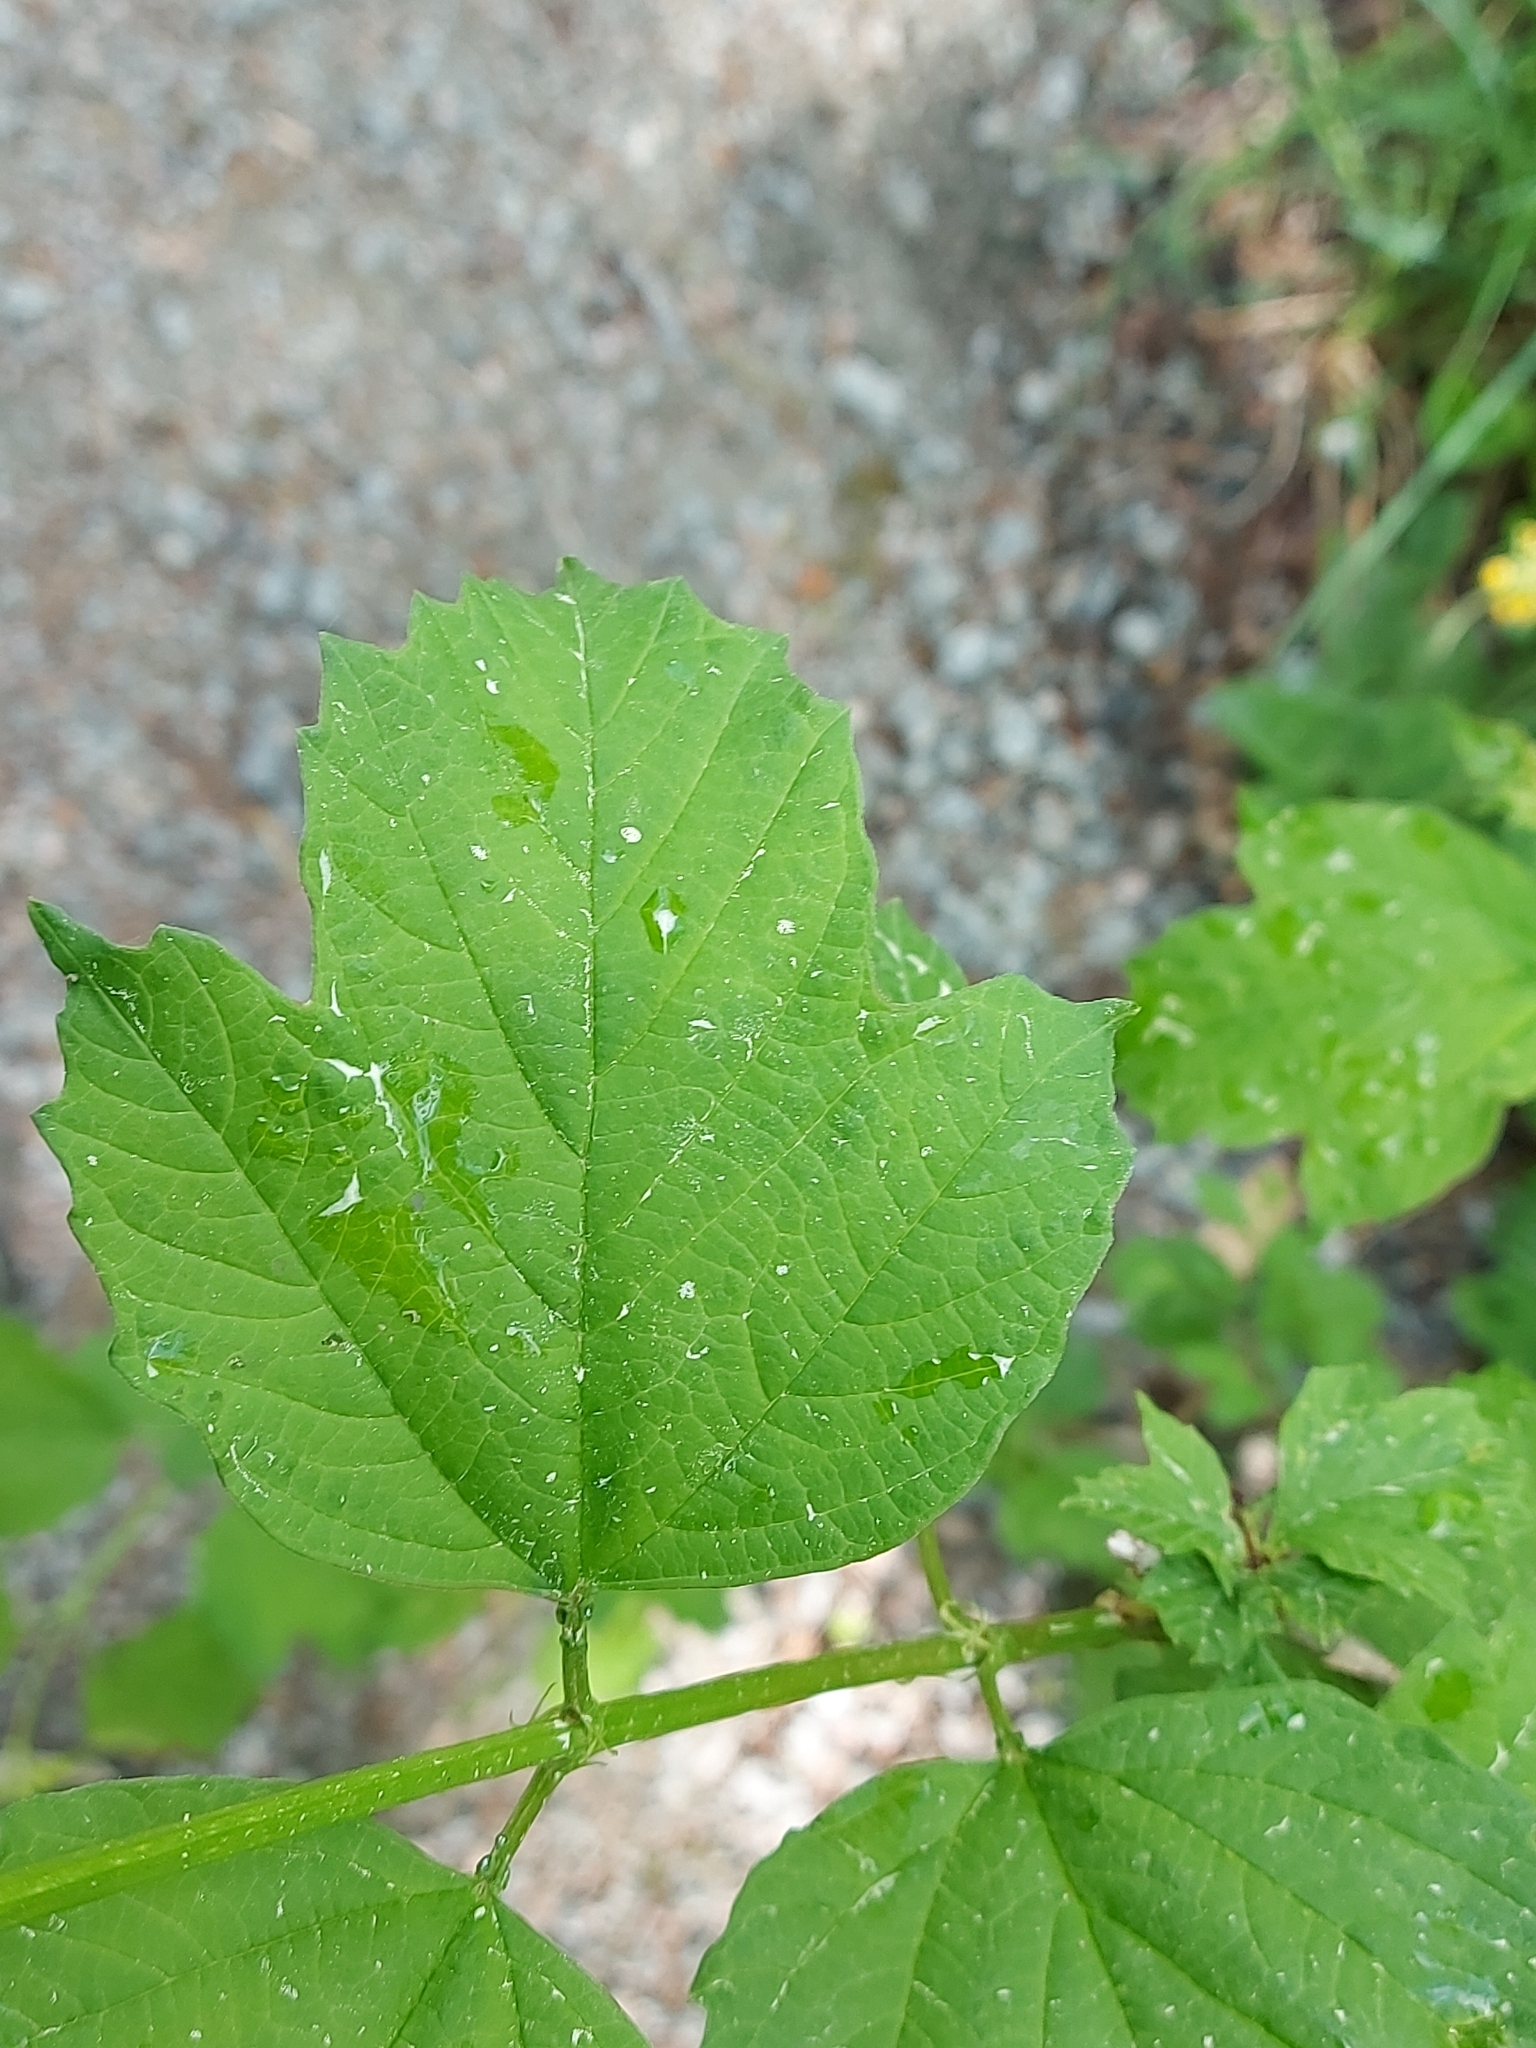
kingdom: Plantae
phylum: Tracheophyta
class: Magnoliopsida
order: Dipsacales
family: Viburnaceae
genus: Viburnum
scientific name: Viburnum opulus
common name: Guelder-rose
